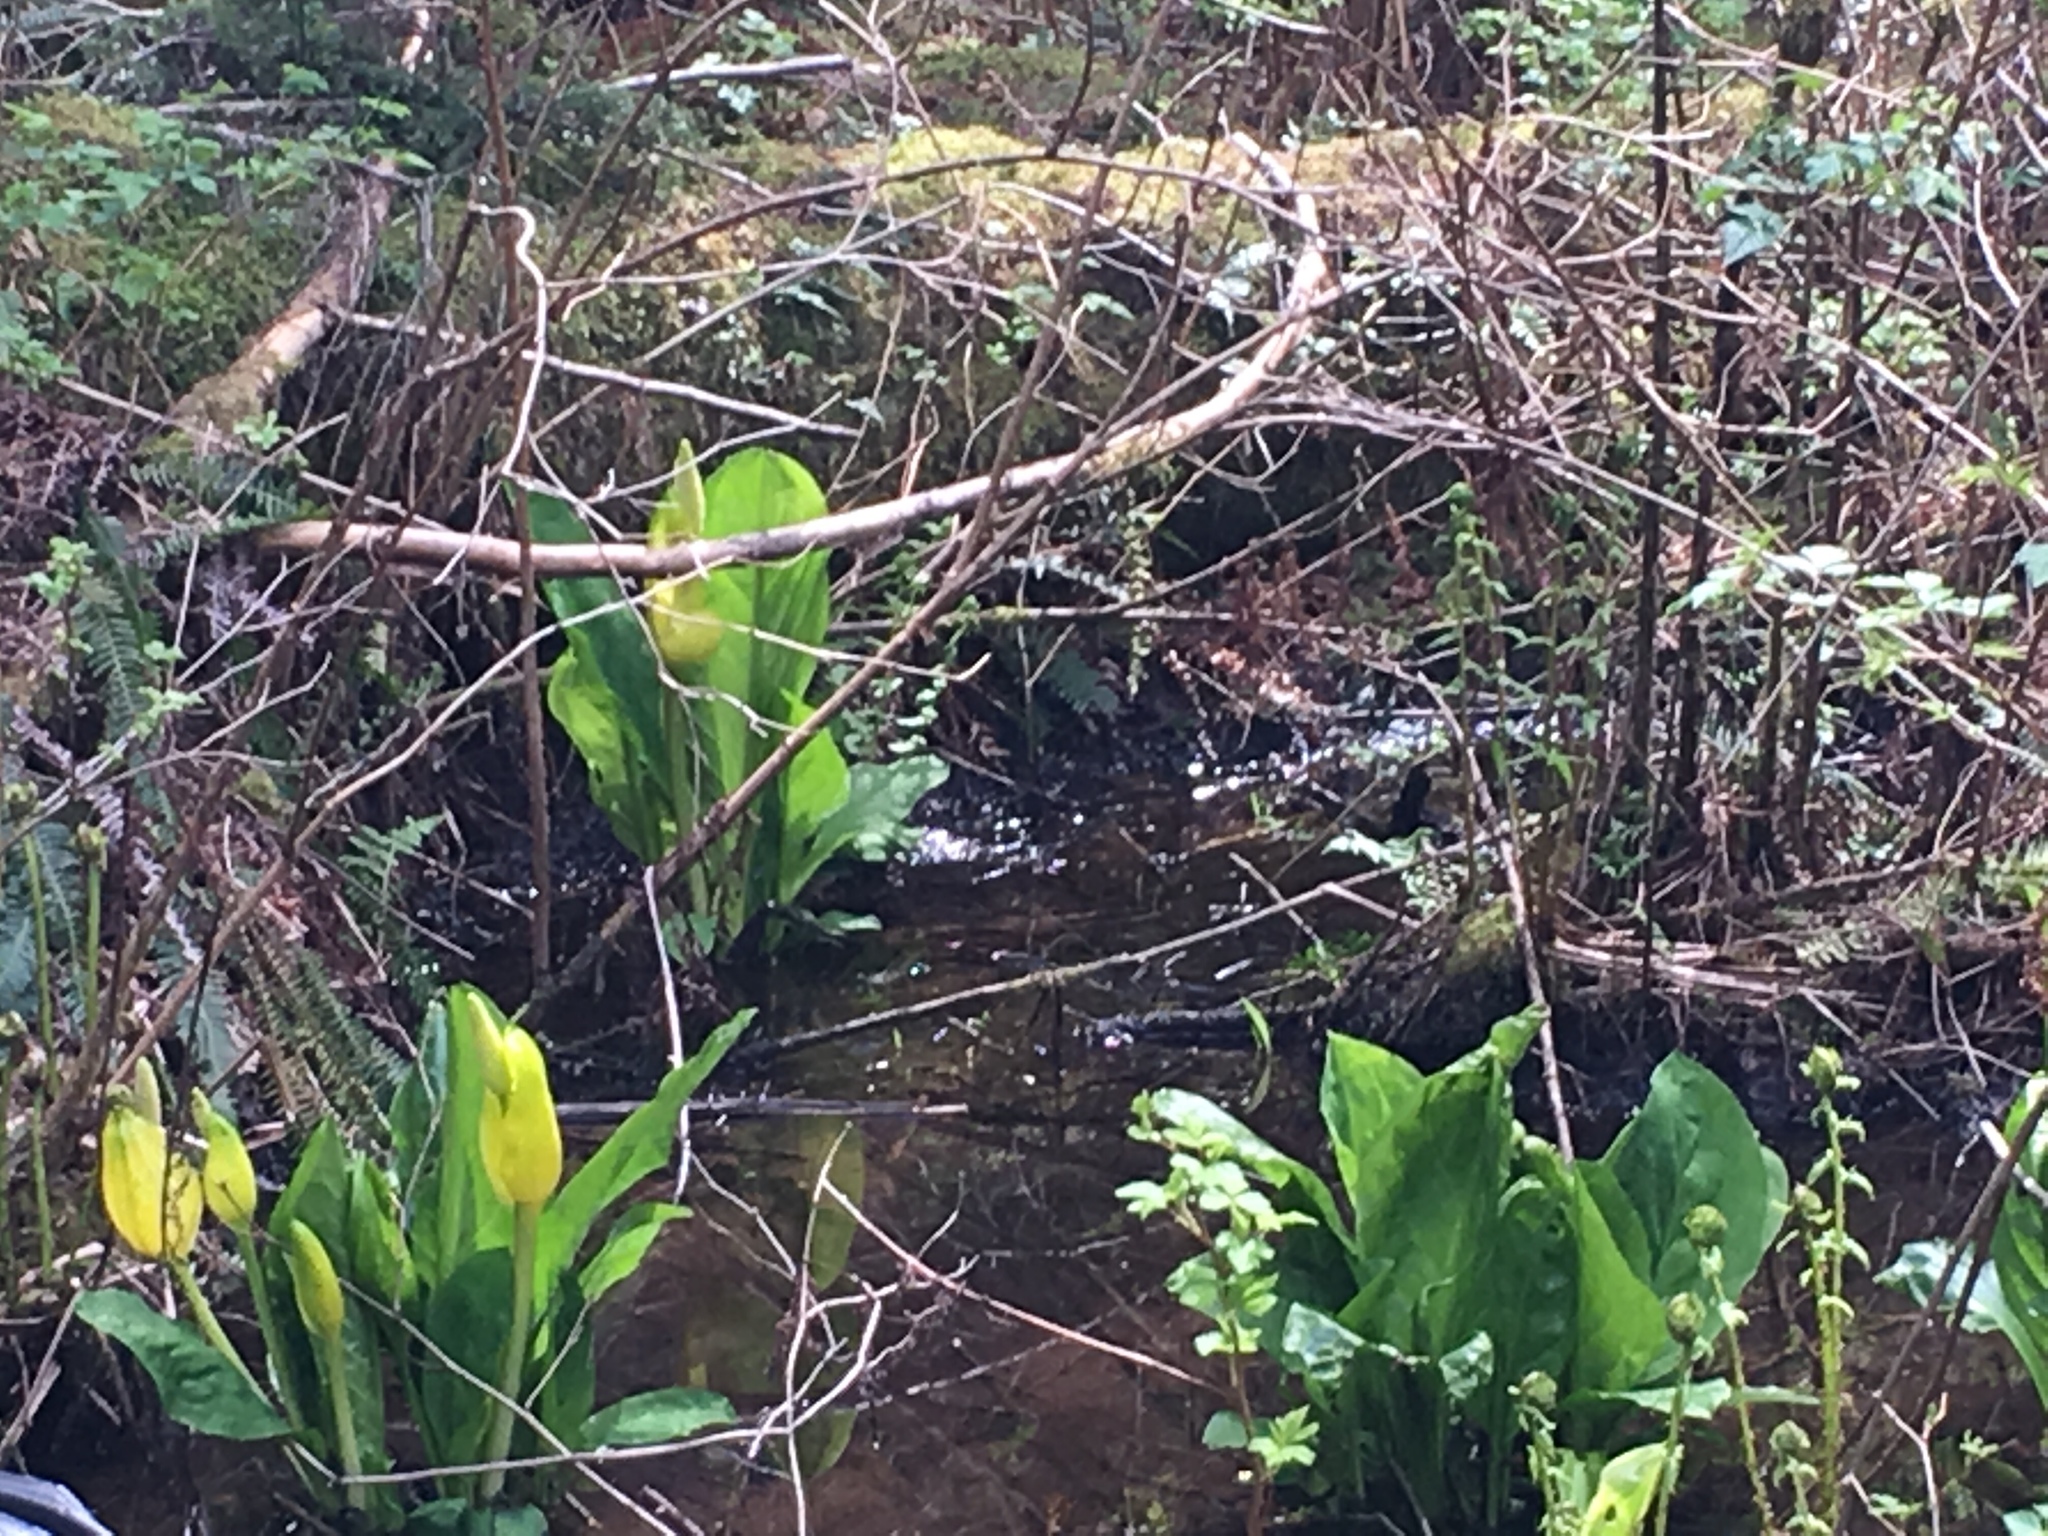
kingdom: Plantae
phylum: Tracheophyta
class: Liliopsida
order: Alismatales
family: Araceae
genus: Lysichiton
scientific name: Lysichiton americanus
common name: American skunk cabbage
